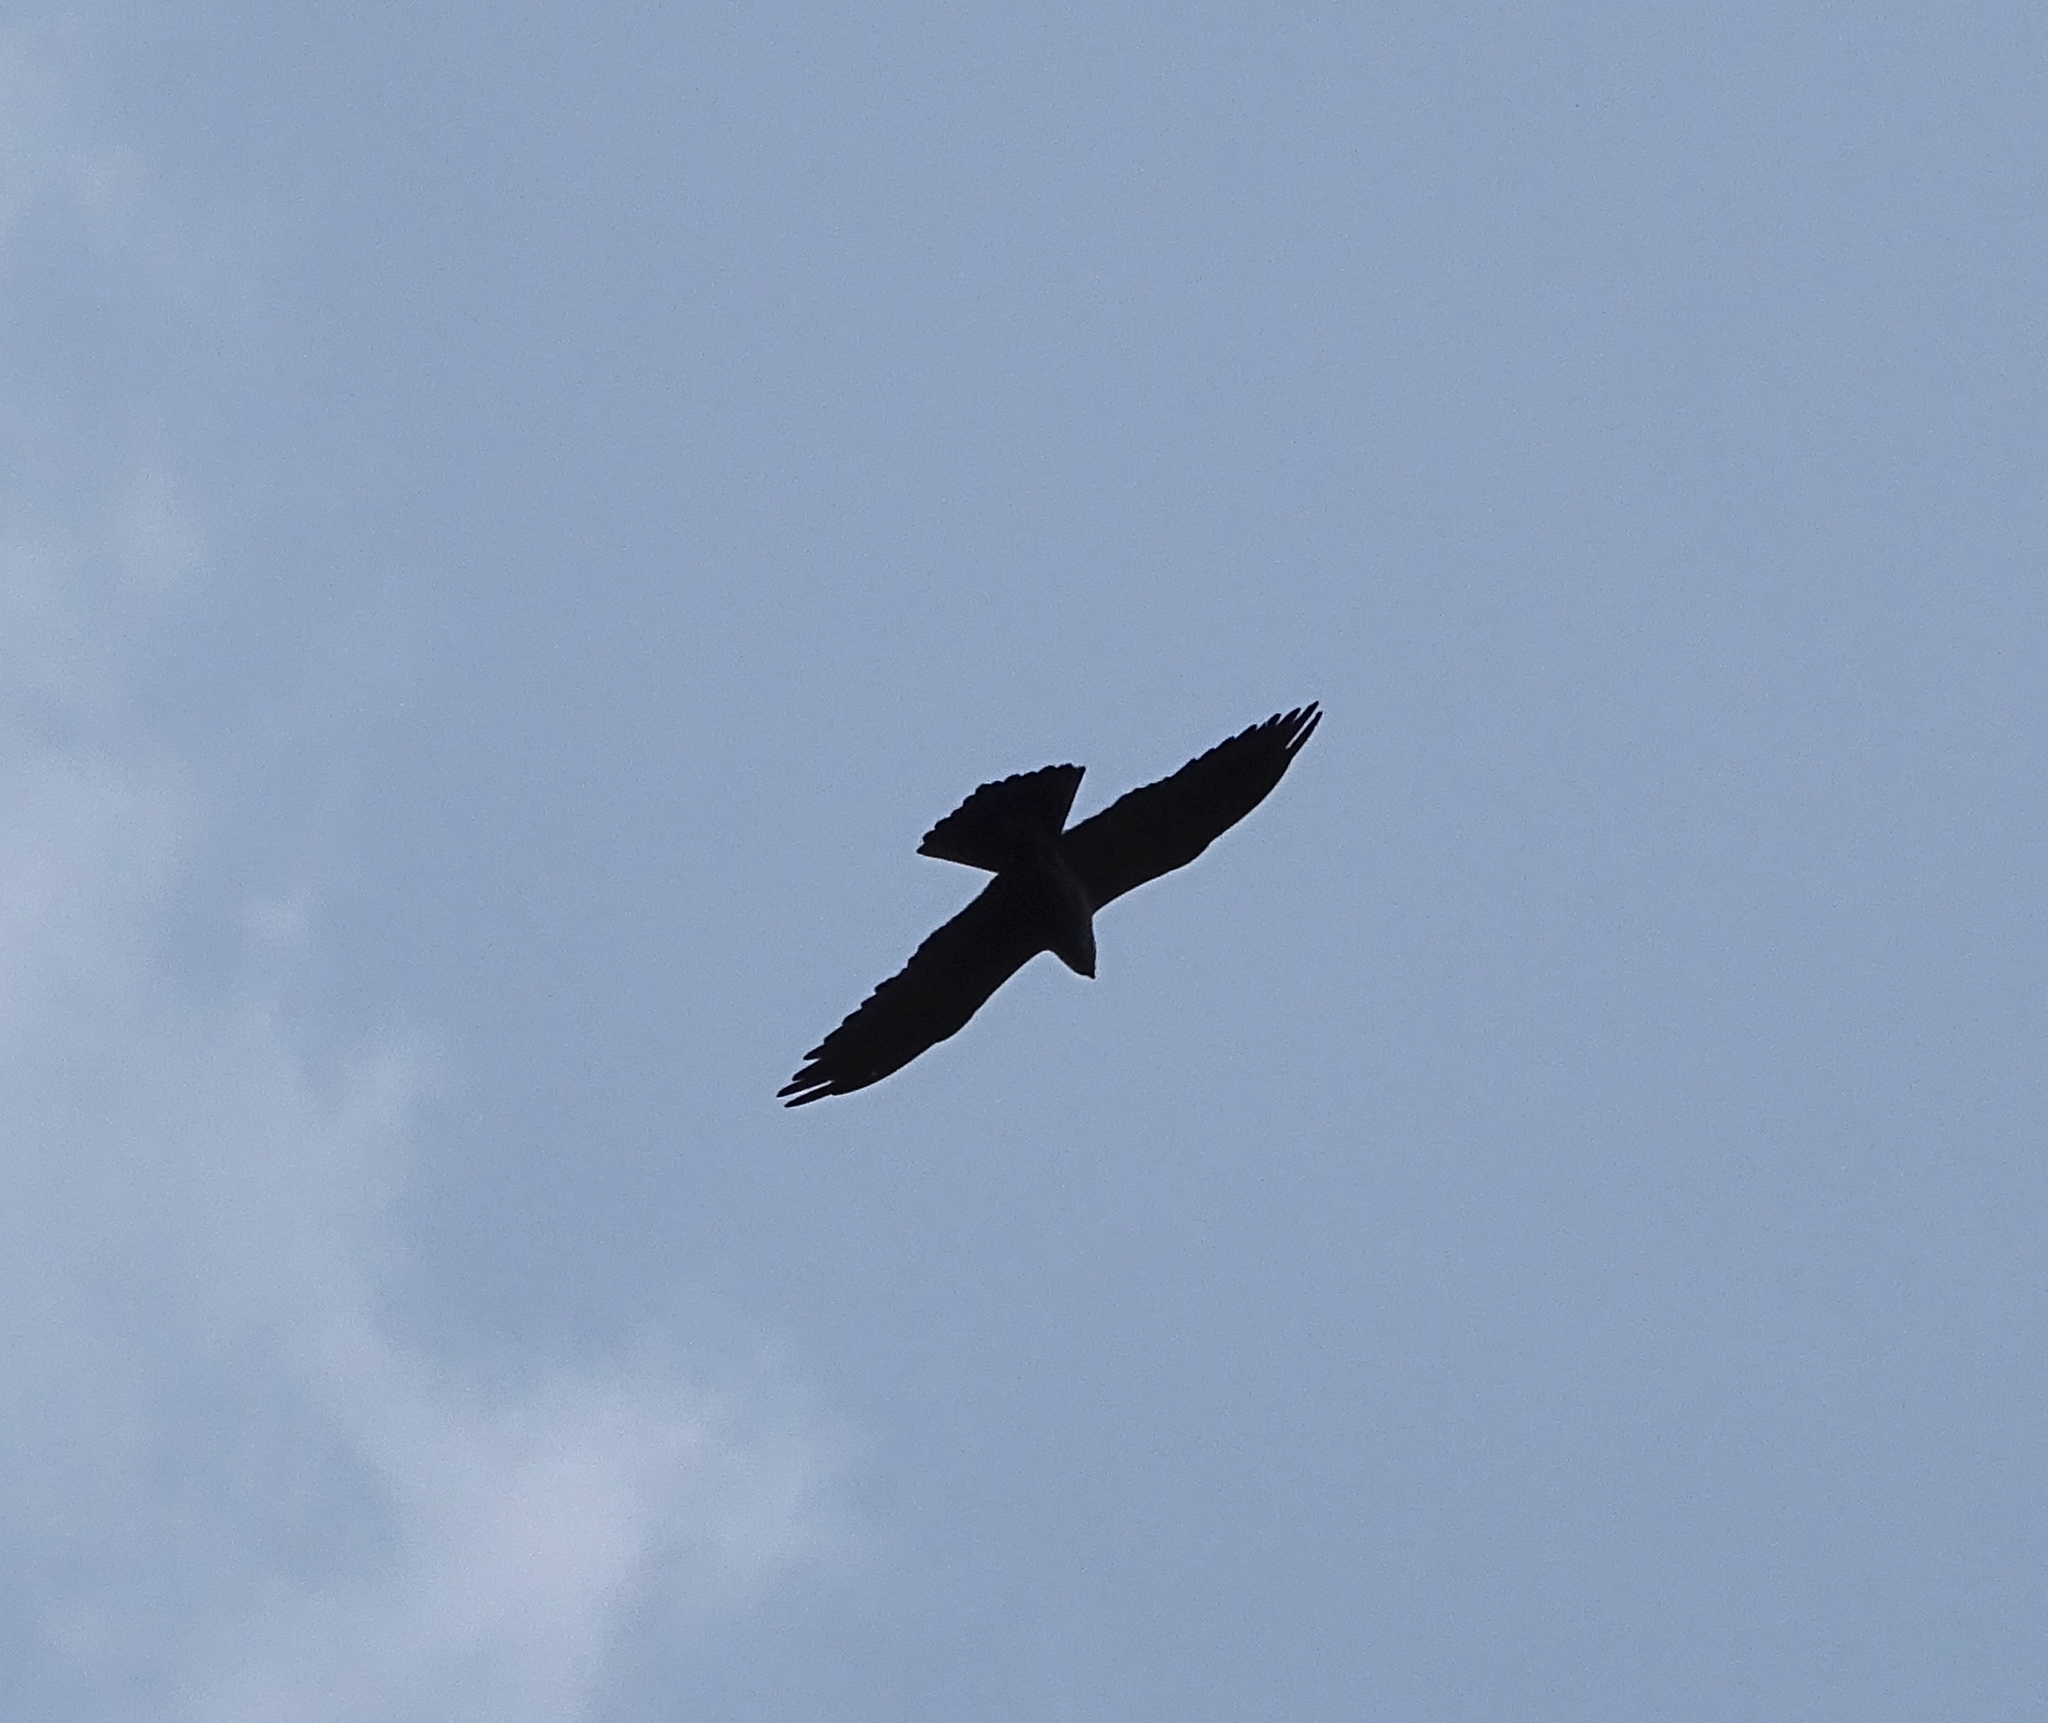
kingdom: Animalia
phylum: Chordata
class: Aves
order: Accipitriformes
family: Accipitridae
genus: Ictinia
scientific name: Ictinia mississippiensis
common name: Mississippi kite
